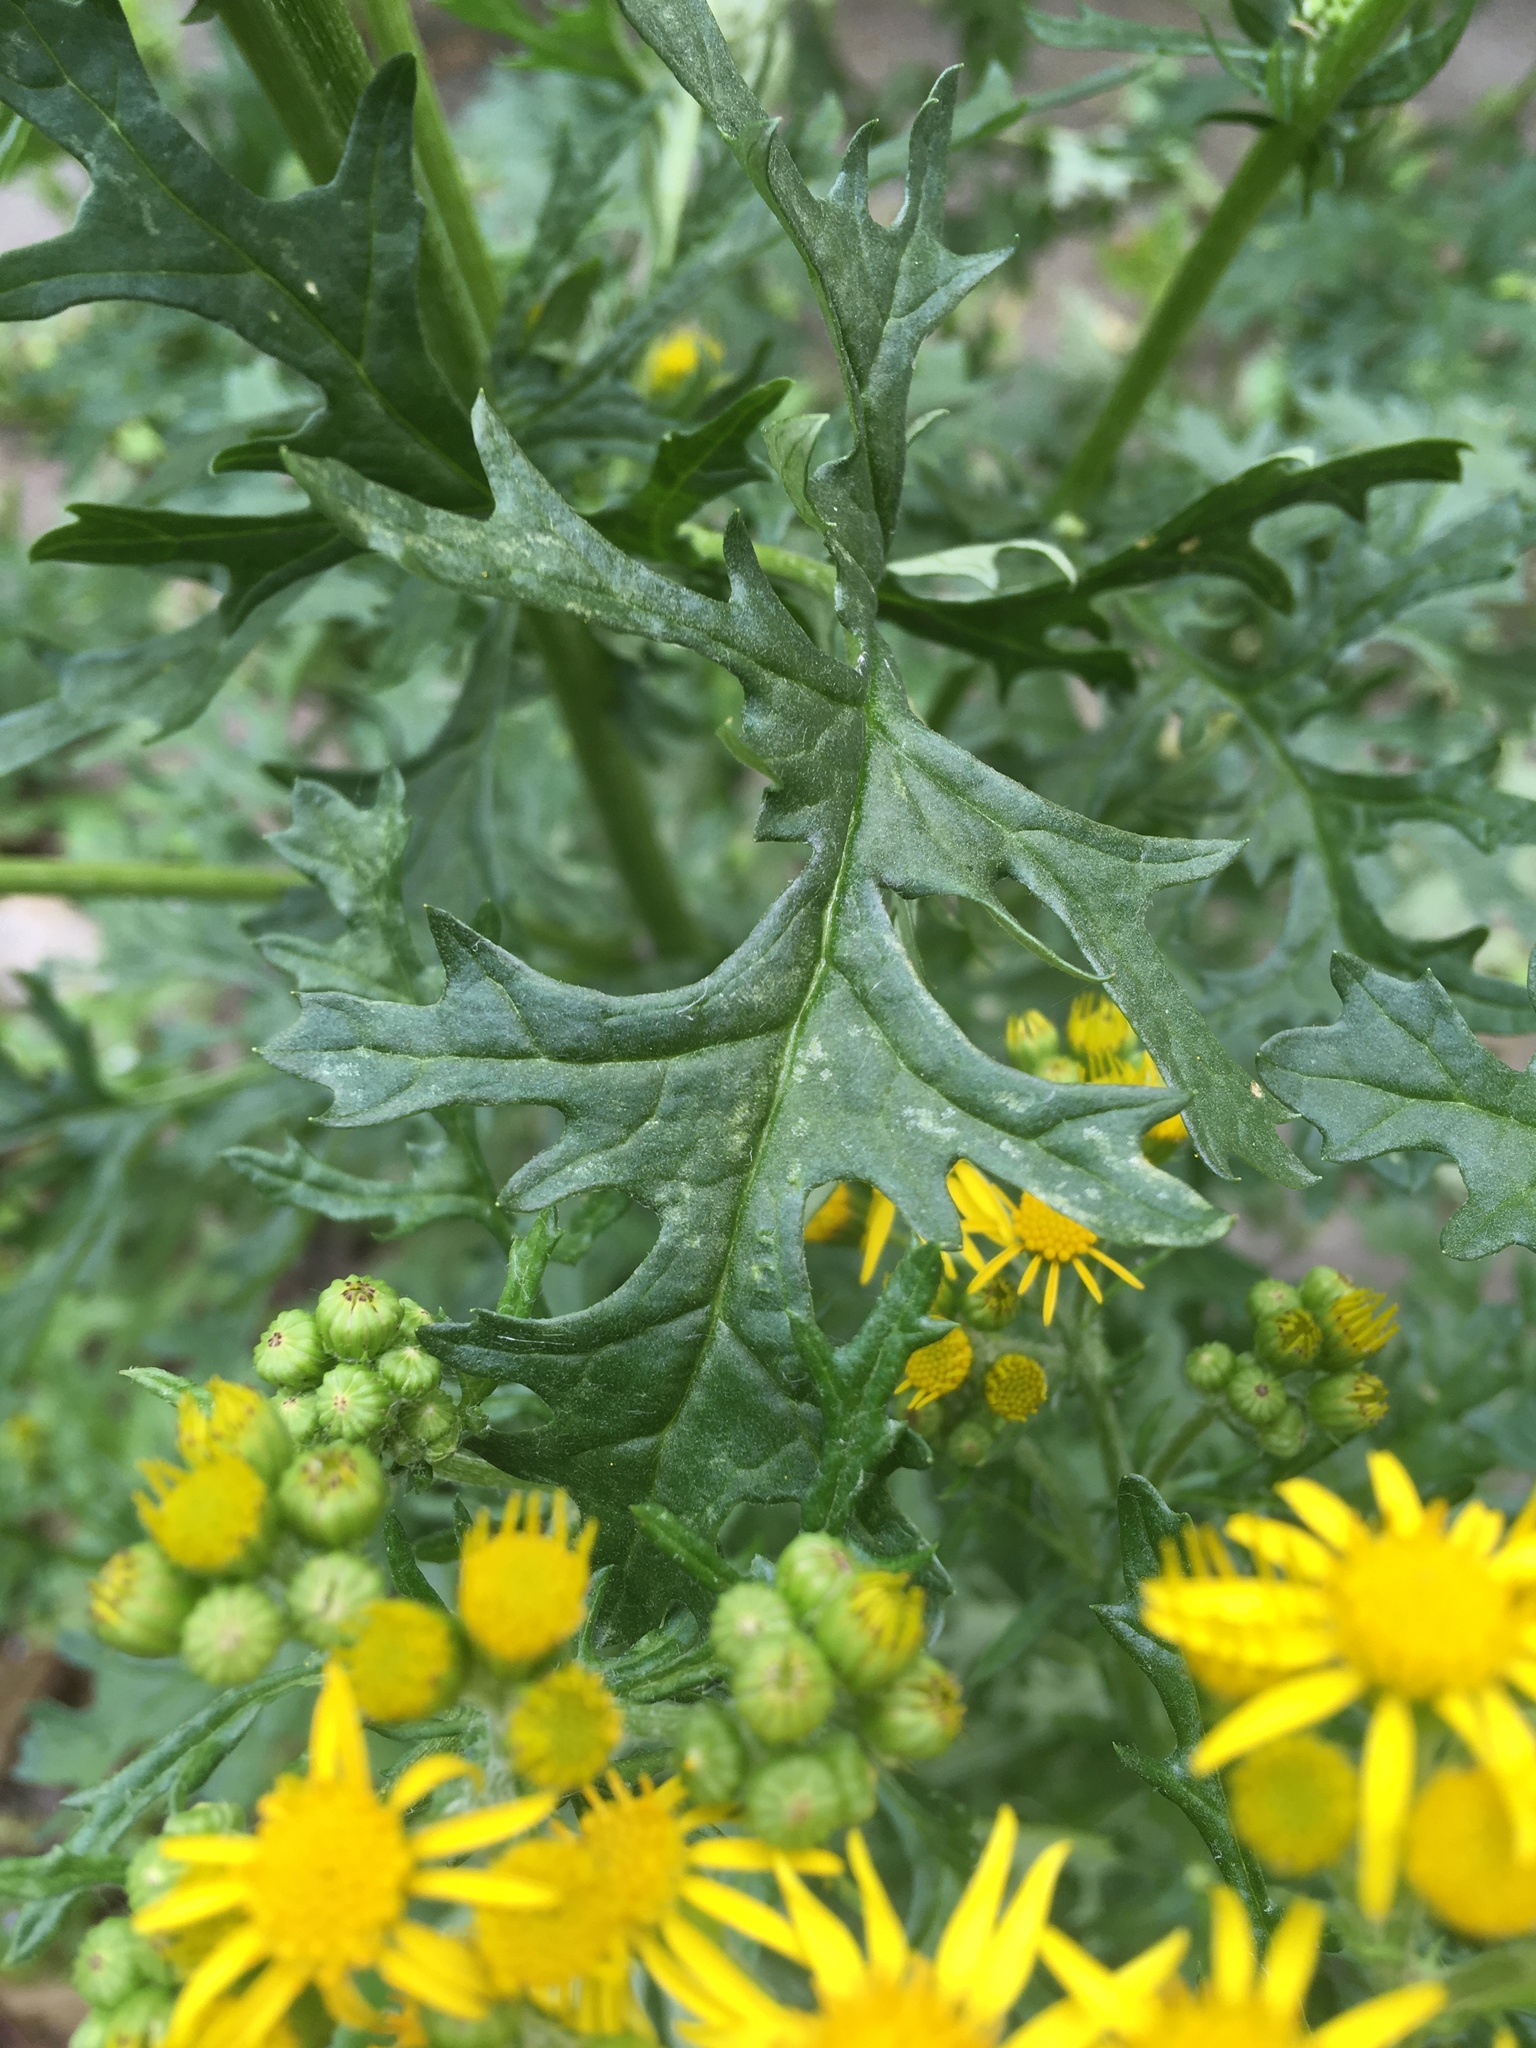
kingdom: Plantae
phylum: Tracheophyta
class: Magnoliopsida
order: Asterales
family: Asteraceae
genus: Jacobaea
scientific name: Jacobaea vulgaris
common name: Stinking willie
